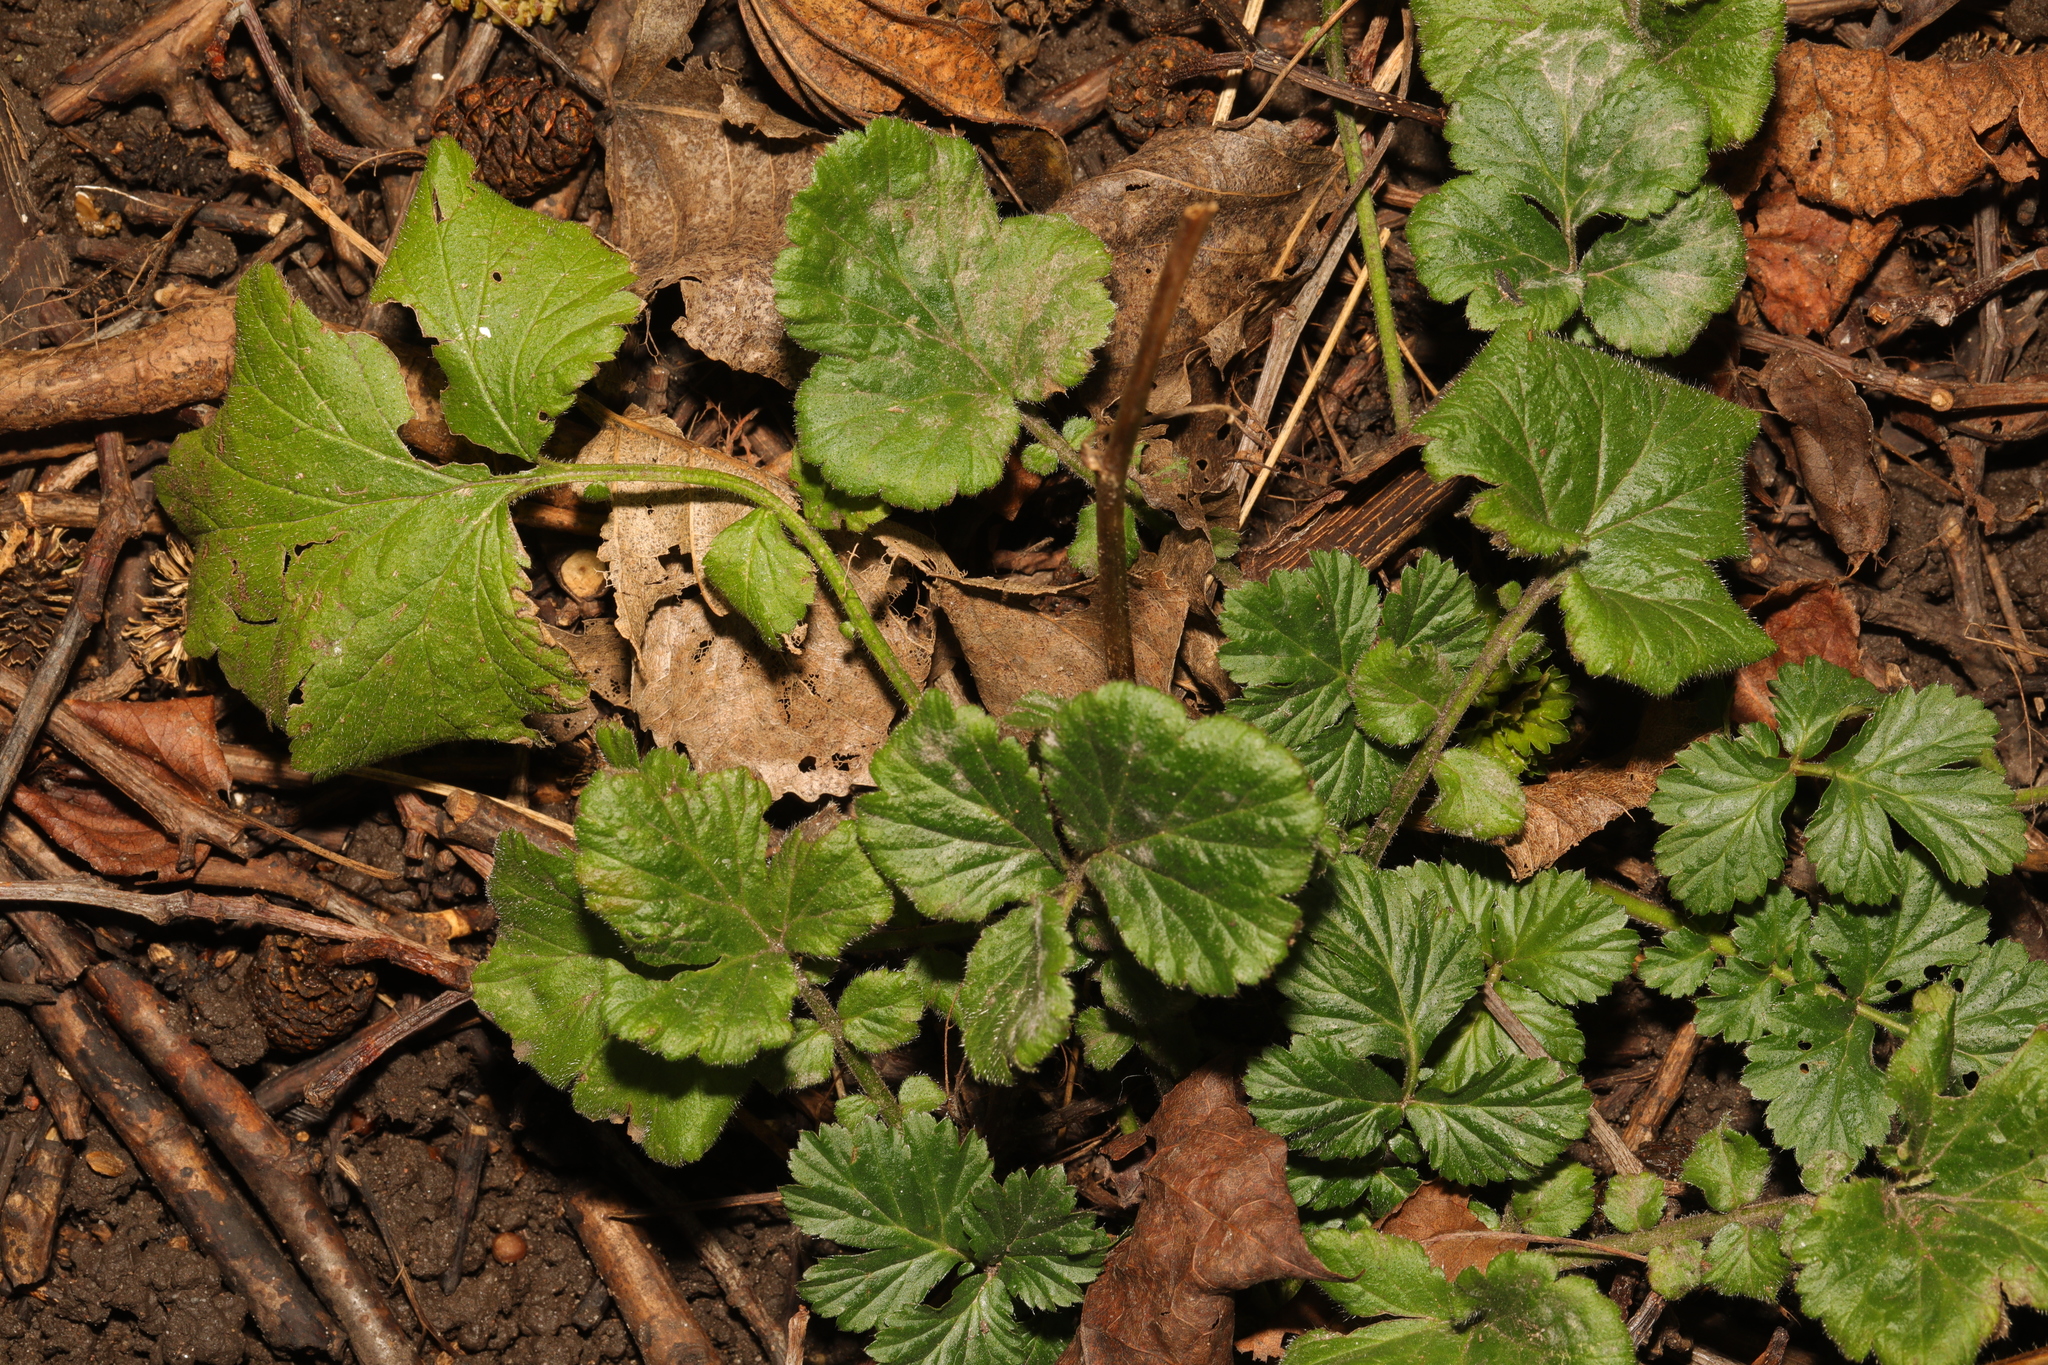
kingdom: Plantae
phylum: Tracheophyta
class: Magnoliopsida
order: Rosales
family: Rosaceae
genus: Geum
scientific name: Geum urbanum
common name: Wood avens
